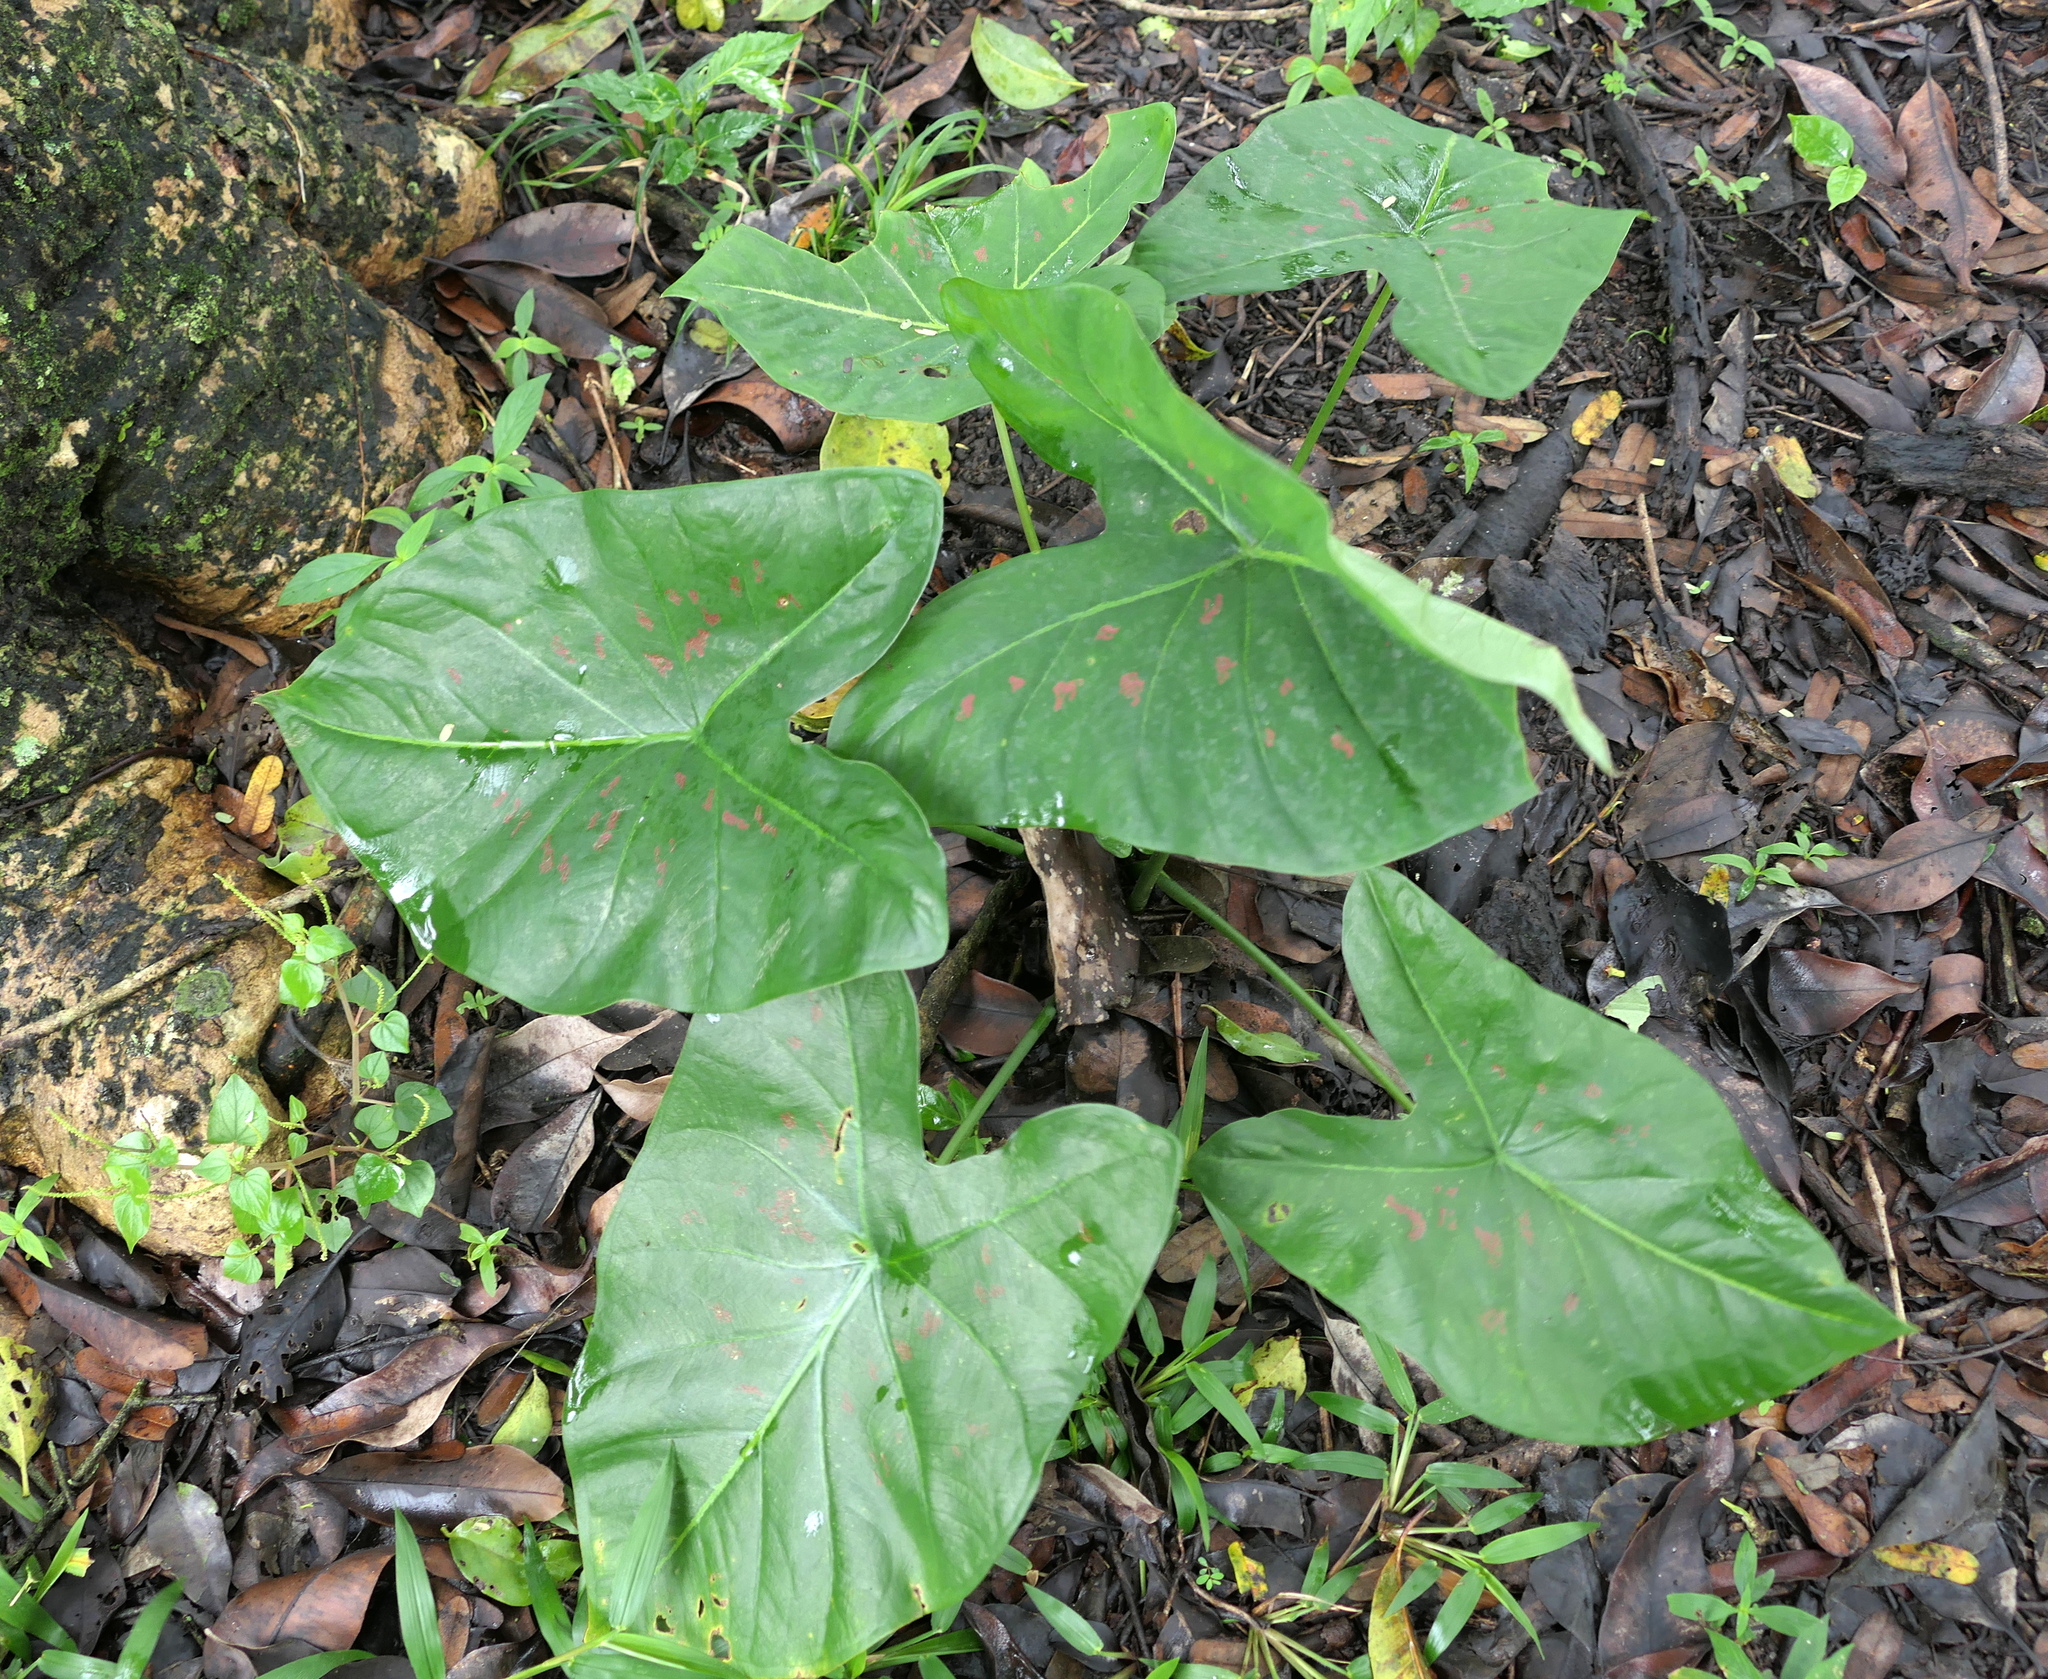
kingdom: Plantae
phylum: Tracheophyta
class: Liliopsida
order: Alismatales
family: Araceae
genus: Caladium
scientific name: Caladium bicolor
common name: Artist's pallet
